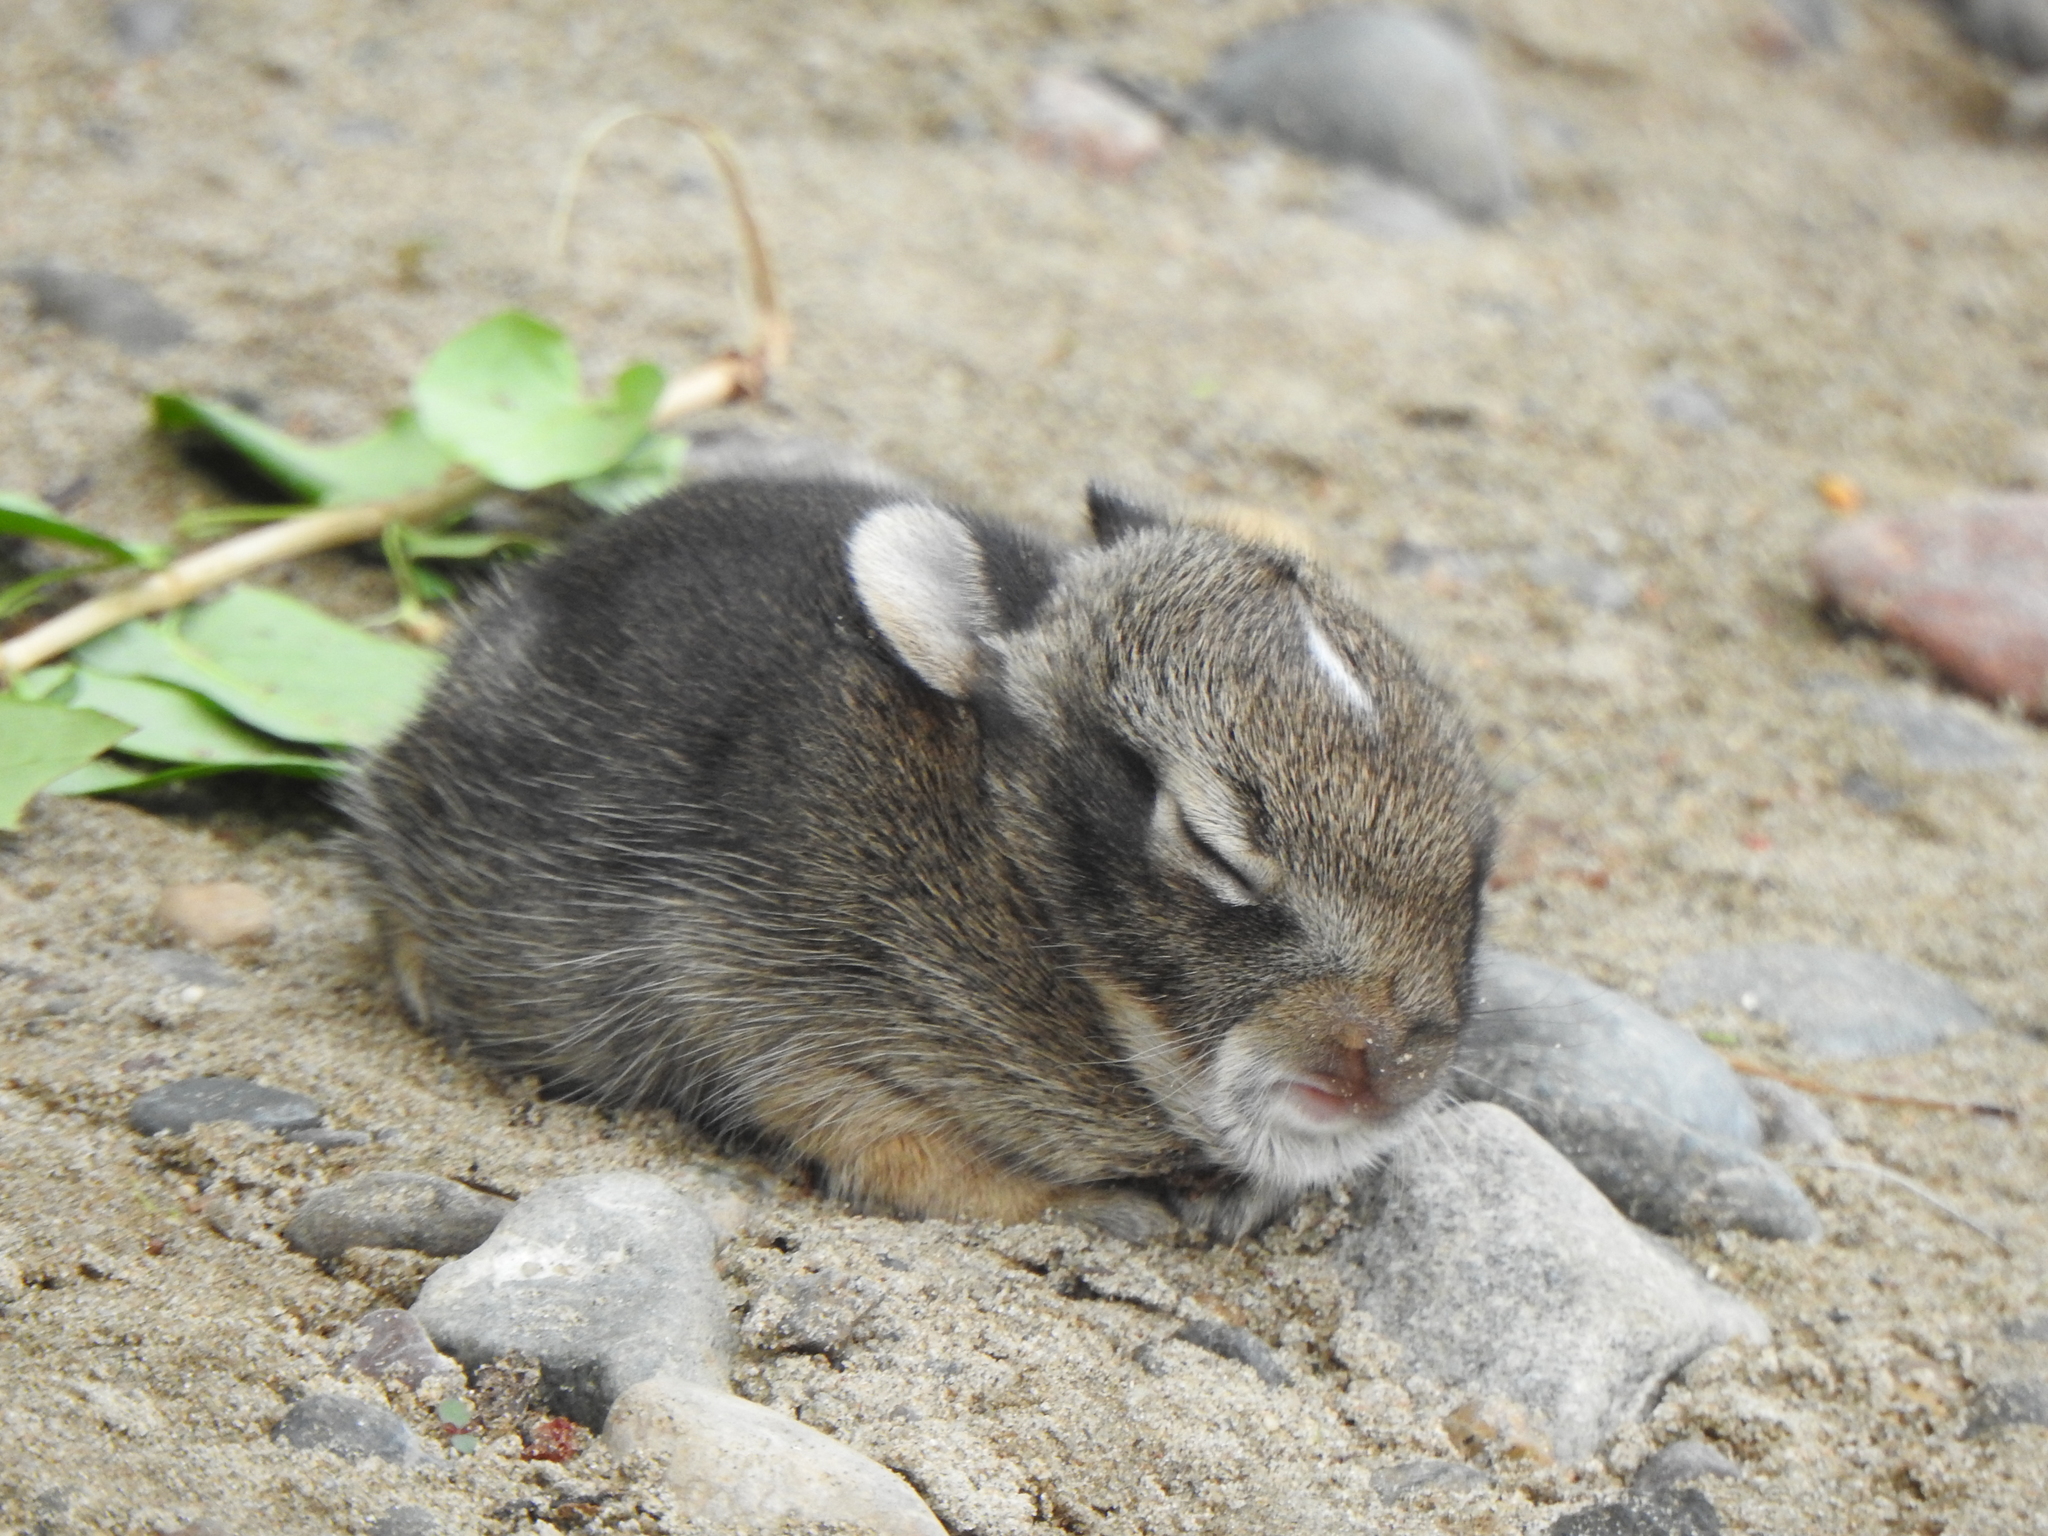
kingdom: Animalia
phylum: Chordata
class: Mammalia
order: Lagomorpha
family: Leporidae
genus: Sylvilagus
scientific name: Sylvilagus floridanus
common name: Eastern cottontail
